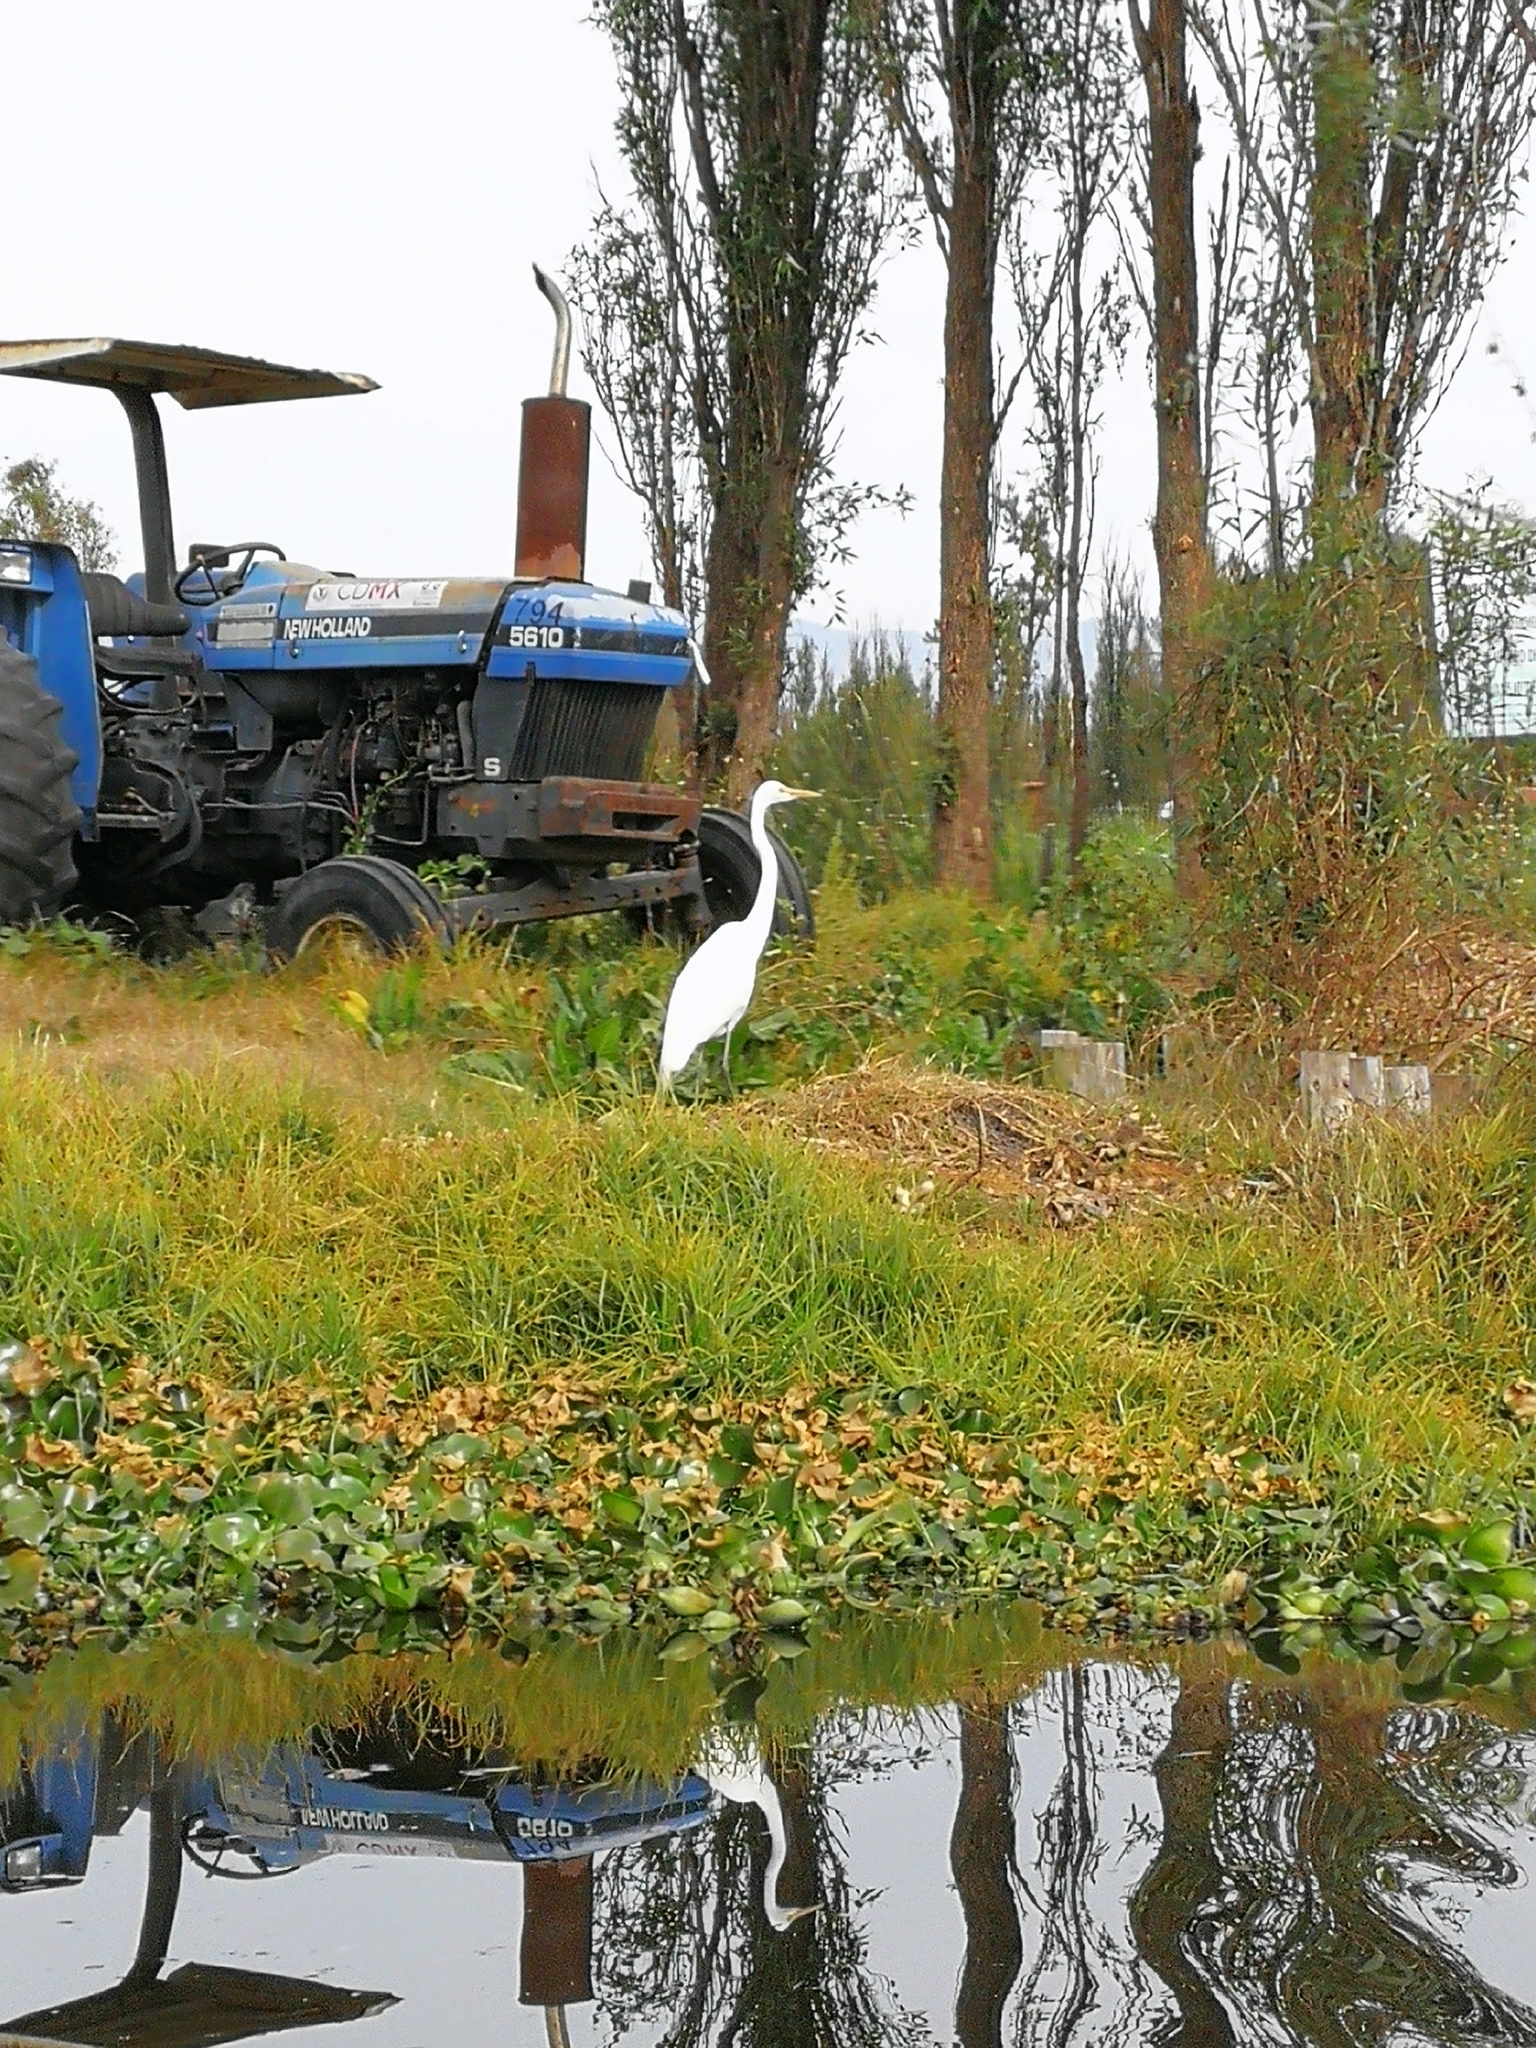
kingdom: Animalia
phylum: Chordata
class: Aves
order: Pelecaniformes
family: Ardeidae
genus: Ardea
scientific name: Ardea alba
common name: Great egret
